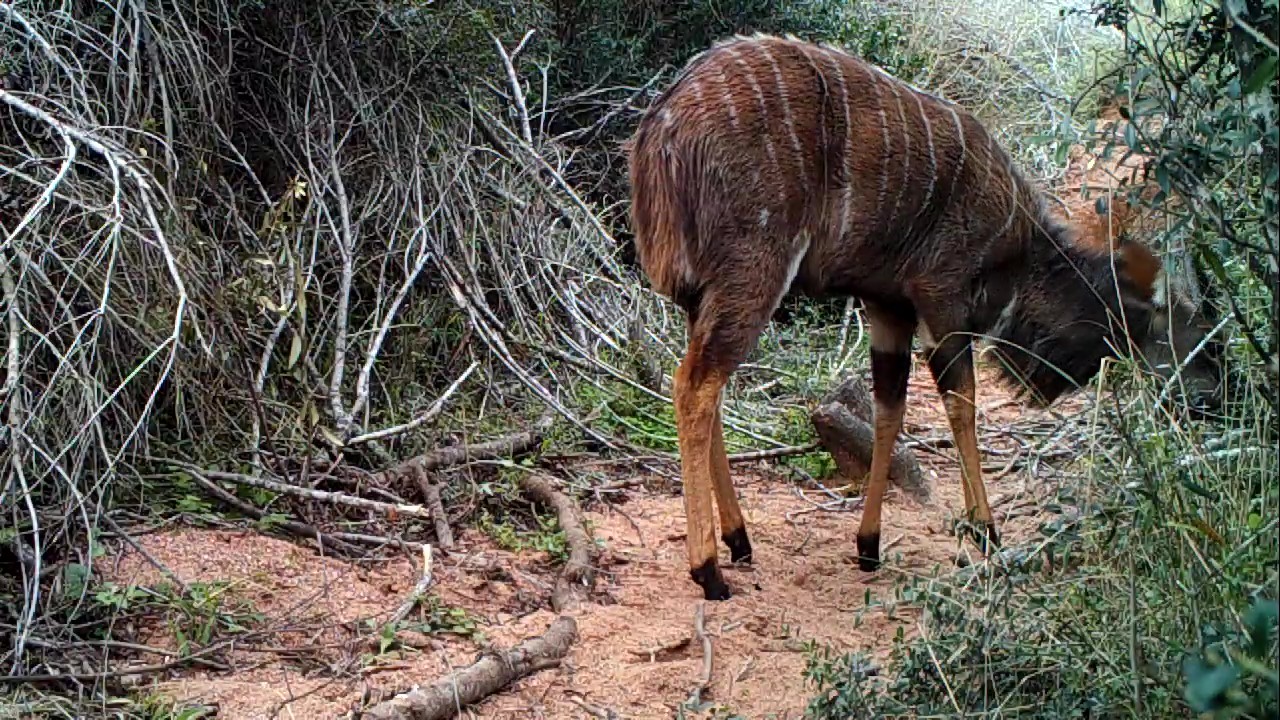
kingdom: Animalia
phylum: Chordata
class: Mammalia
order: Artiodactyla
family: Bovidae
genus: Tragelaphus
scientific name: Tragelaphus angasii
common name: Nyala
